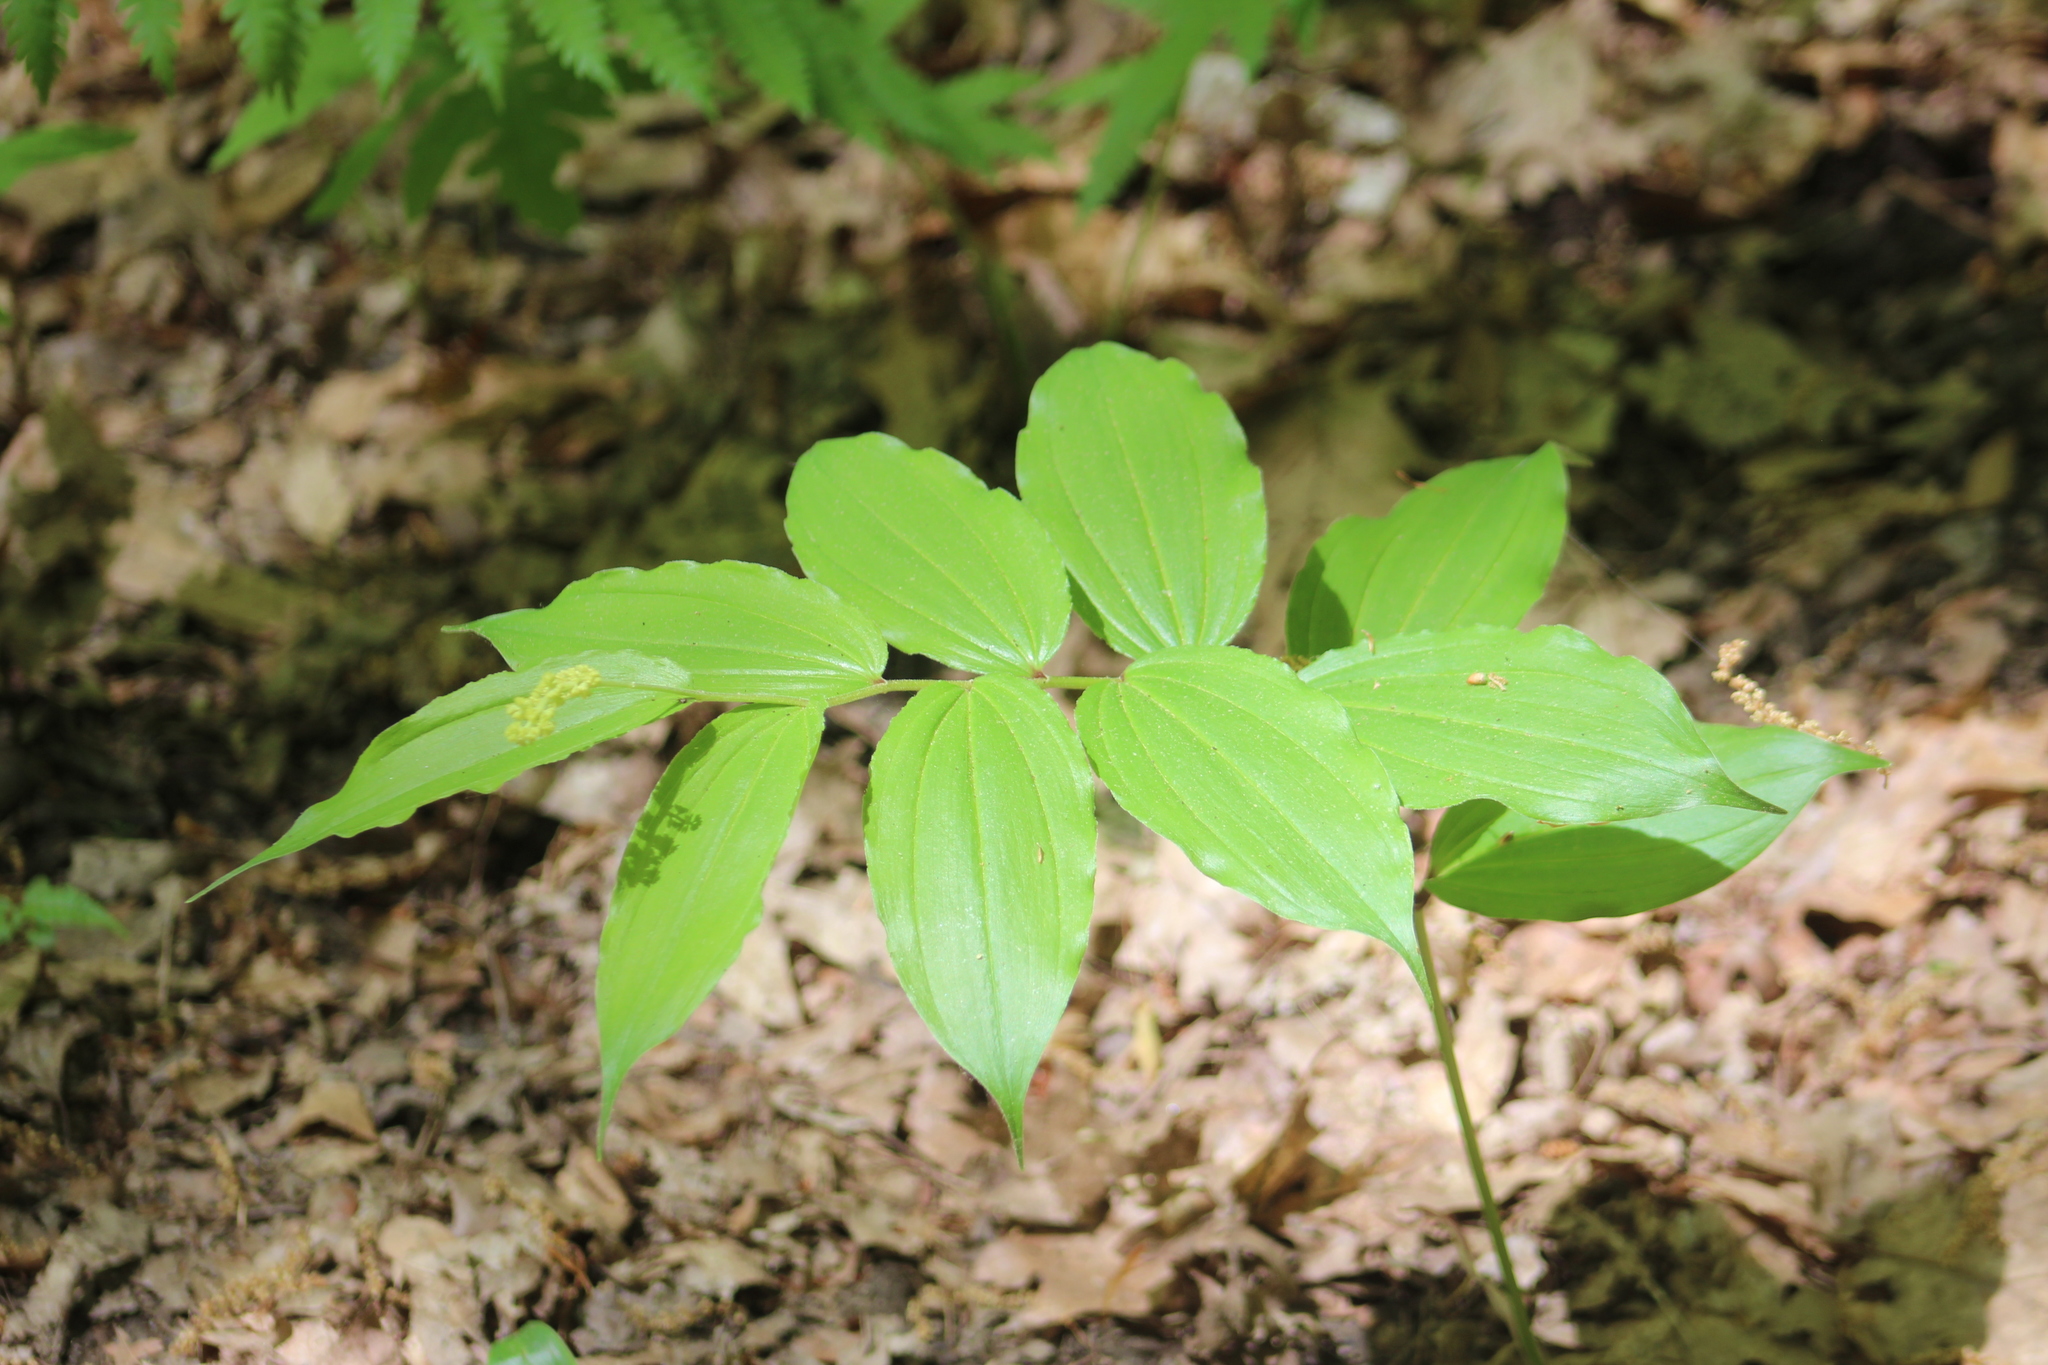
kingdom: Plantae
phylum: Tracheophyta
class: Liliopsida
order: Asparagales
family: Asparagaceae
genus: Maianthemum
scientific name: Maianthemum racemosum
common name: False spikenard
